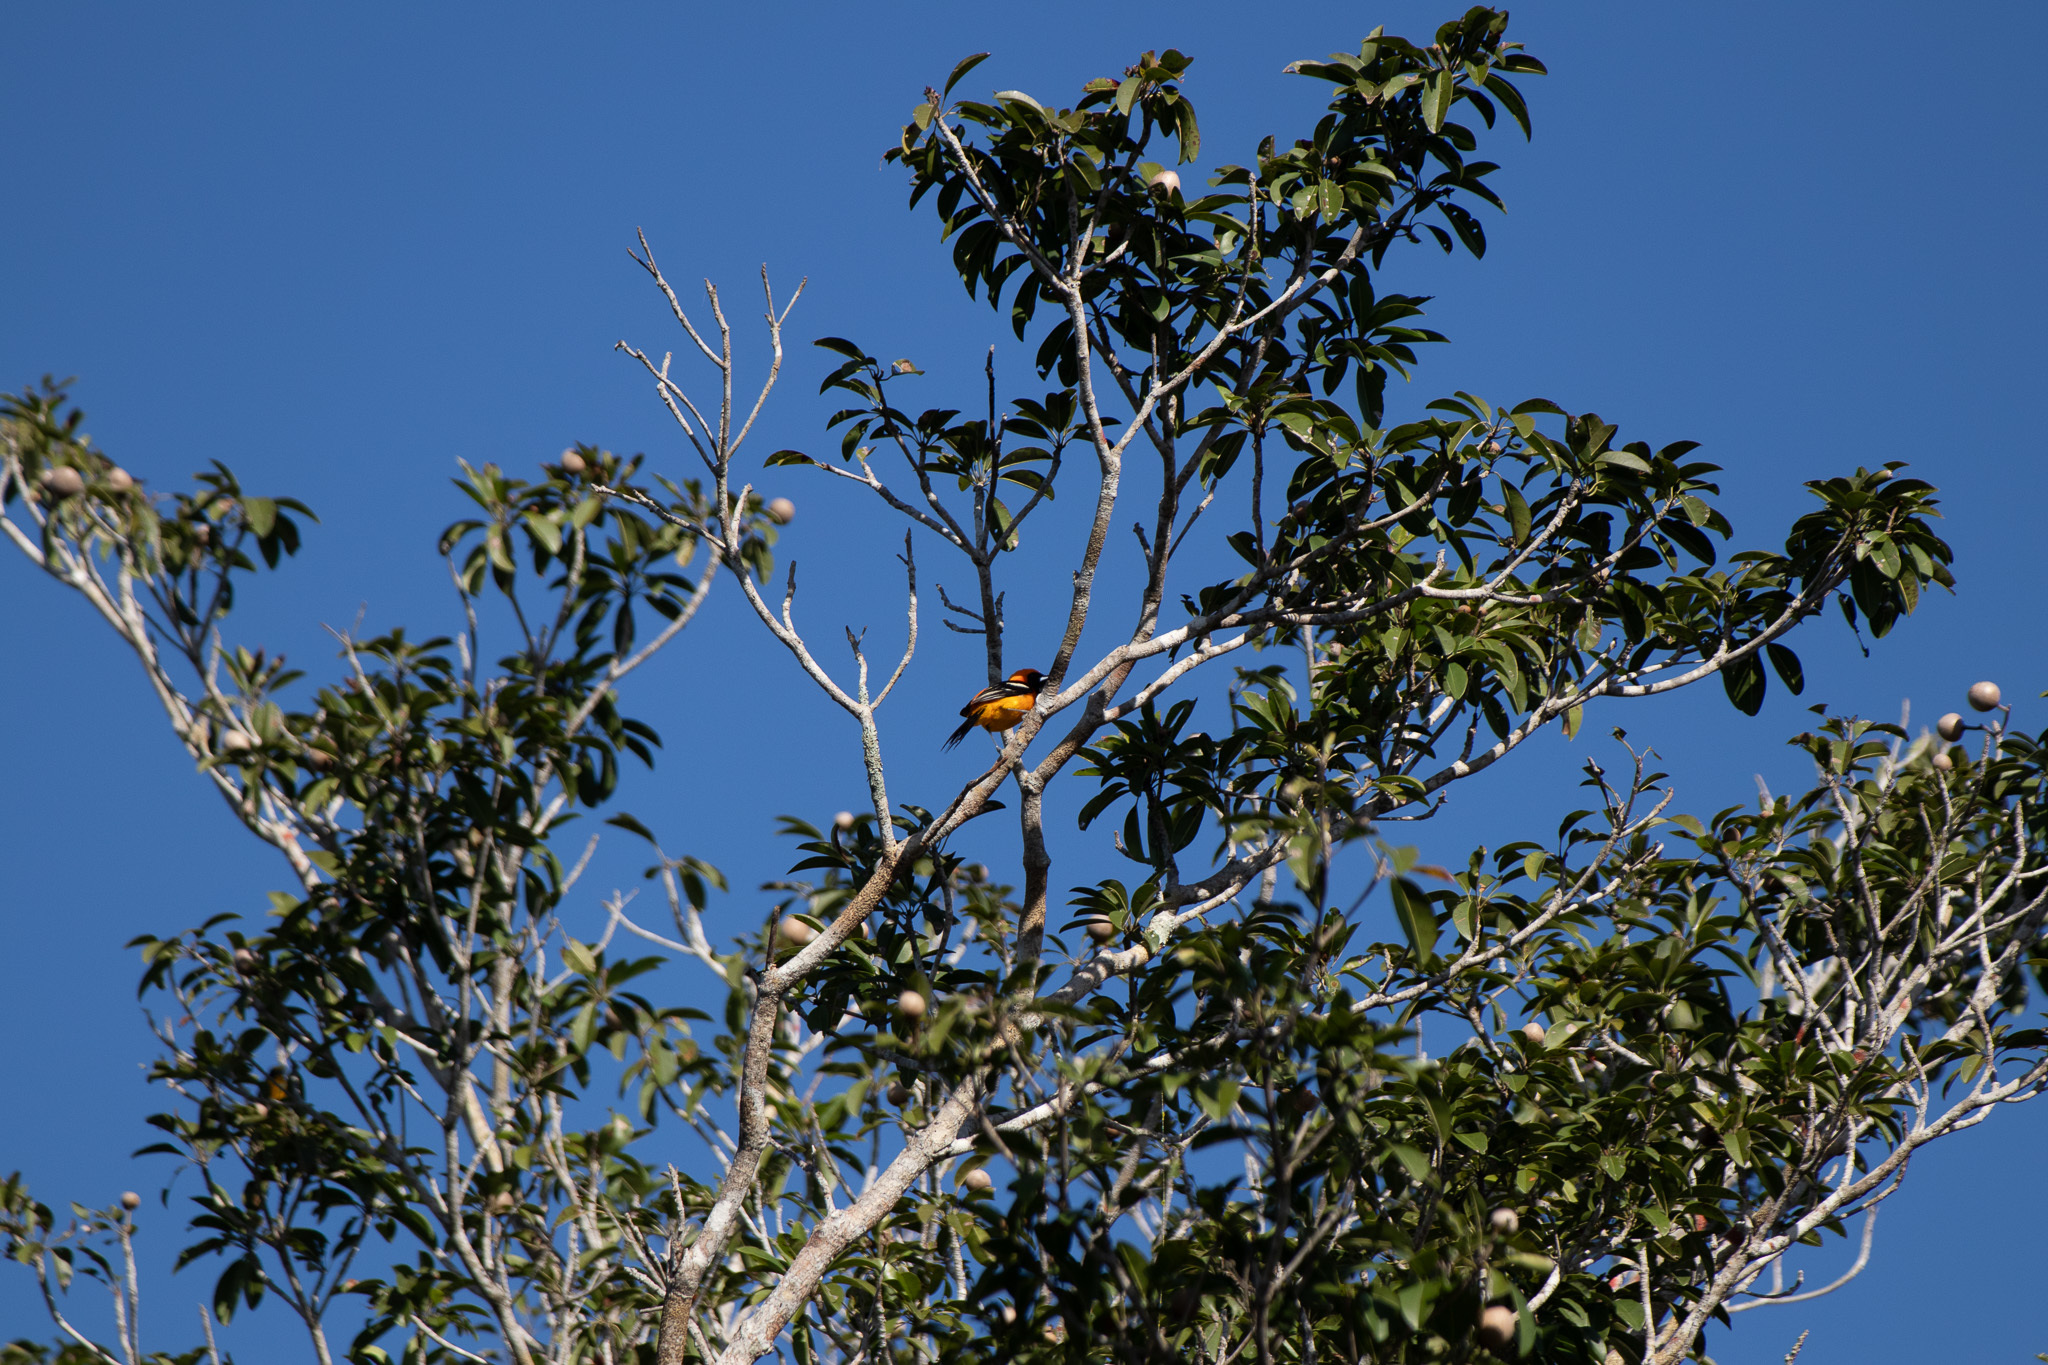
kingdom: Animalia
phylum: Chordata
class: Aves
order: Passeriformes
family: Icteridae
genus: Icterus
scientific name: Icterus cucullatus
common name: Hooded oriole
